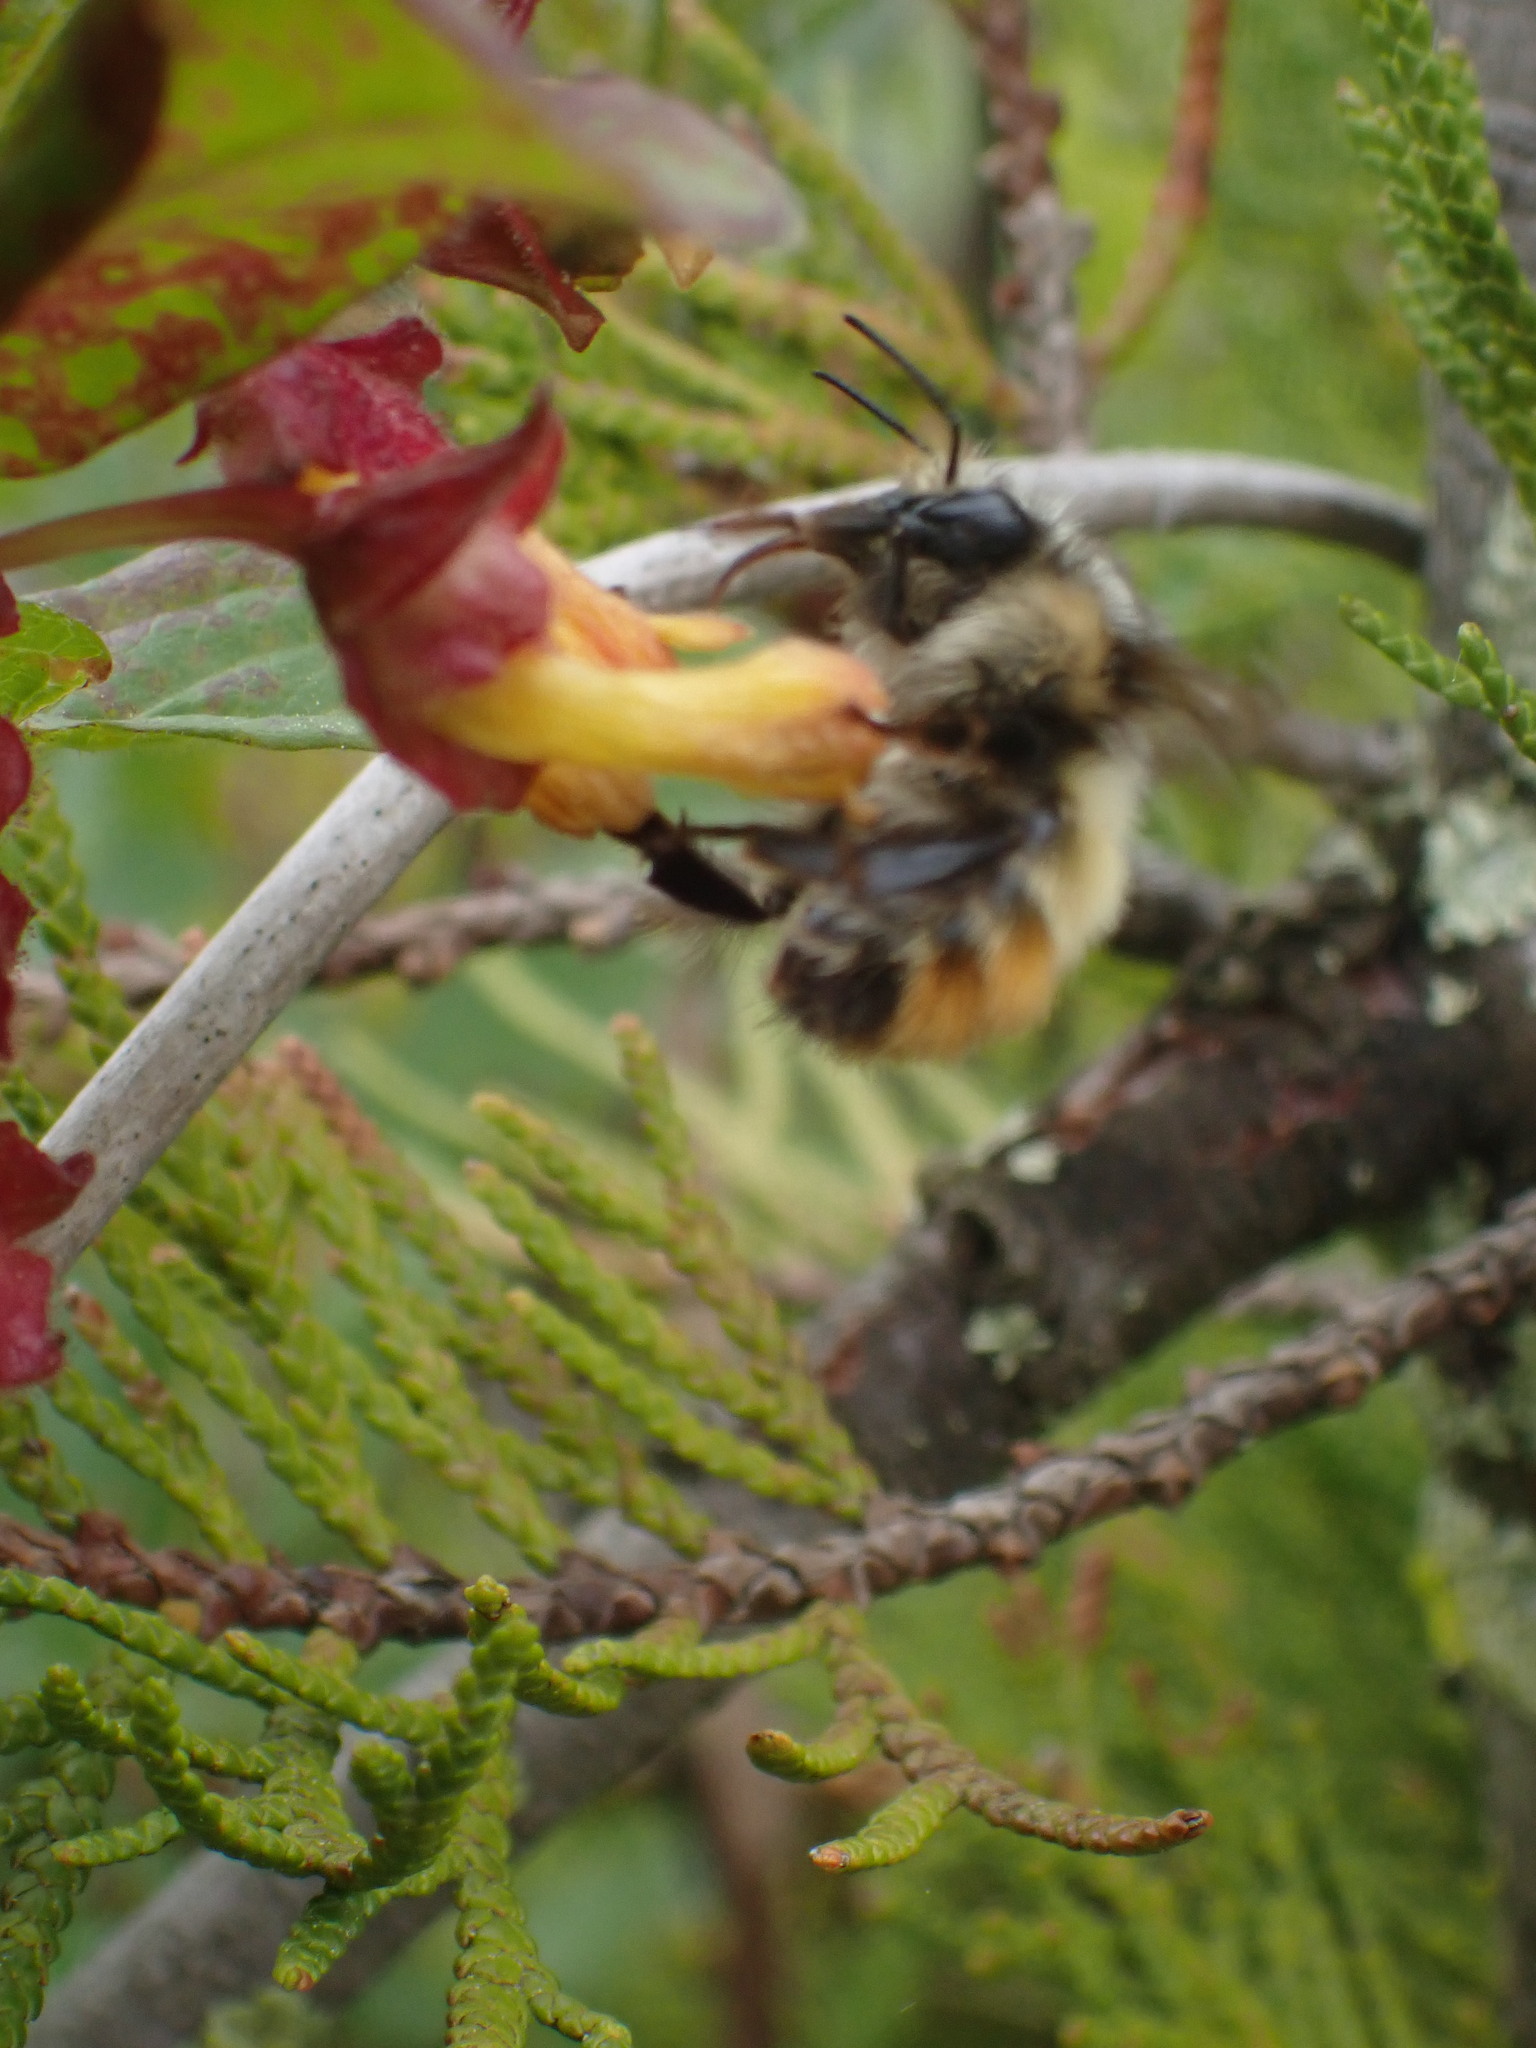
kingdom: Animalia
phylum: Arthropoda
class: Insecta
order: Hymenoptera
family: Apidae
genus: Bombus
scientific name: Bombus flavifrons
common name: Yellow head bumble bee
